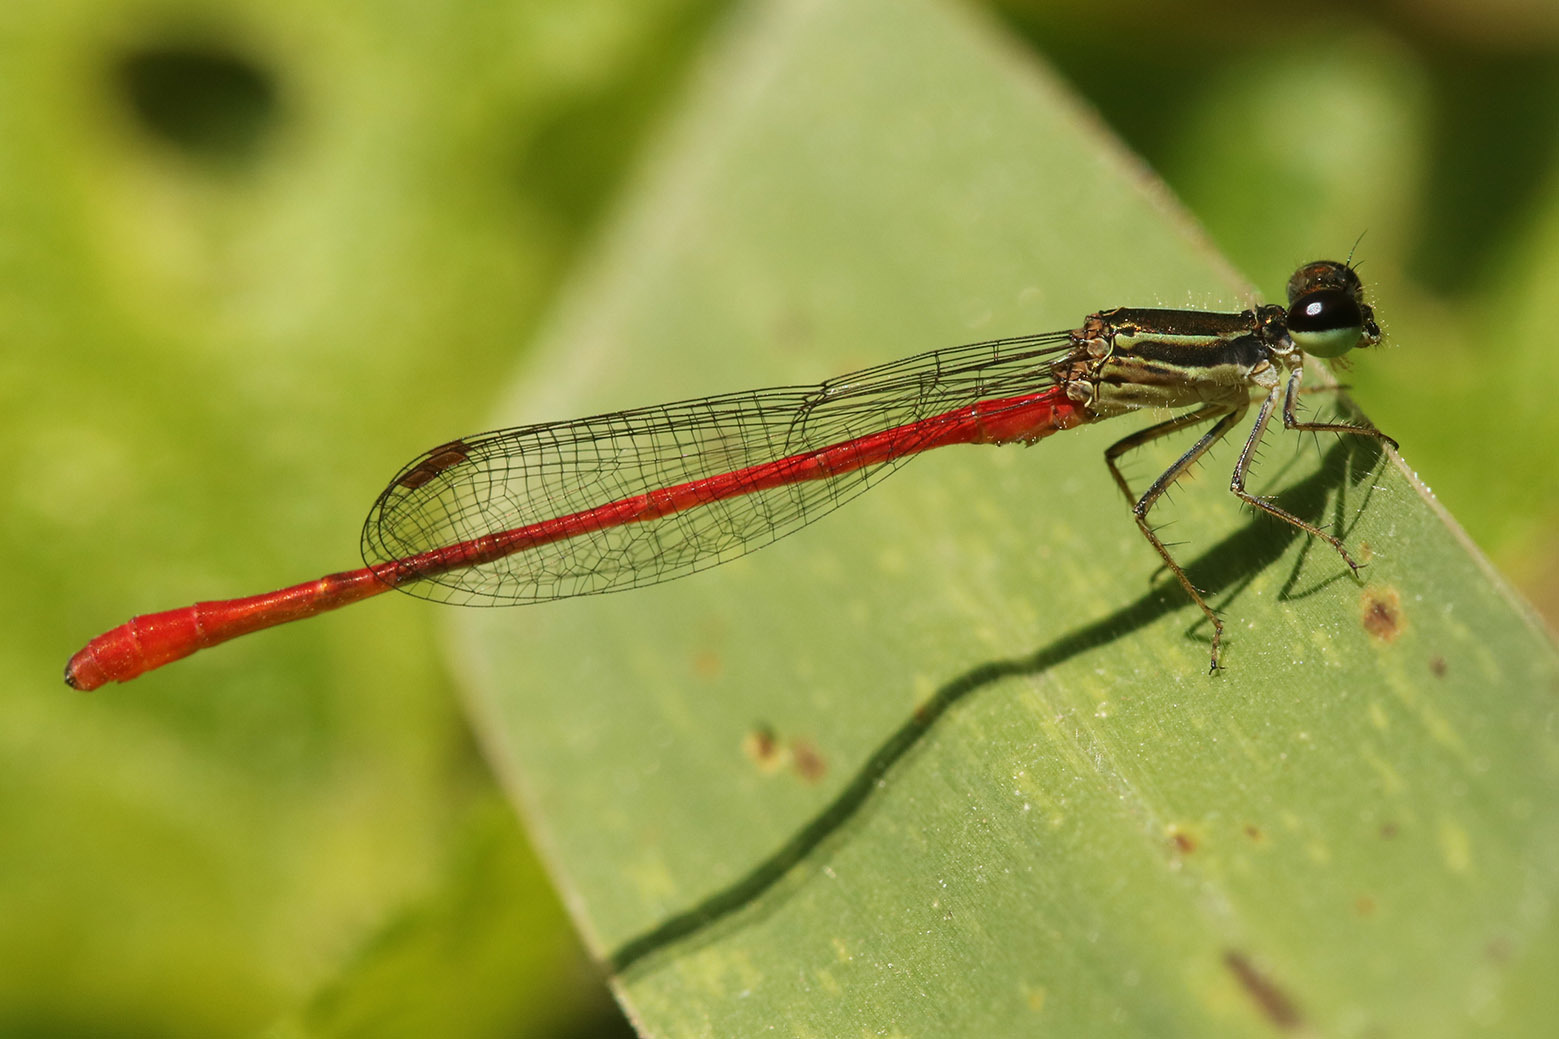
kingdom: Animalia
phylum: Arthropoda
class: Insecta
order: Odonata
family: Coenagrionidae
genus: Telebasis
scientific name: Telebasis willinki
